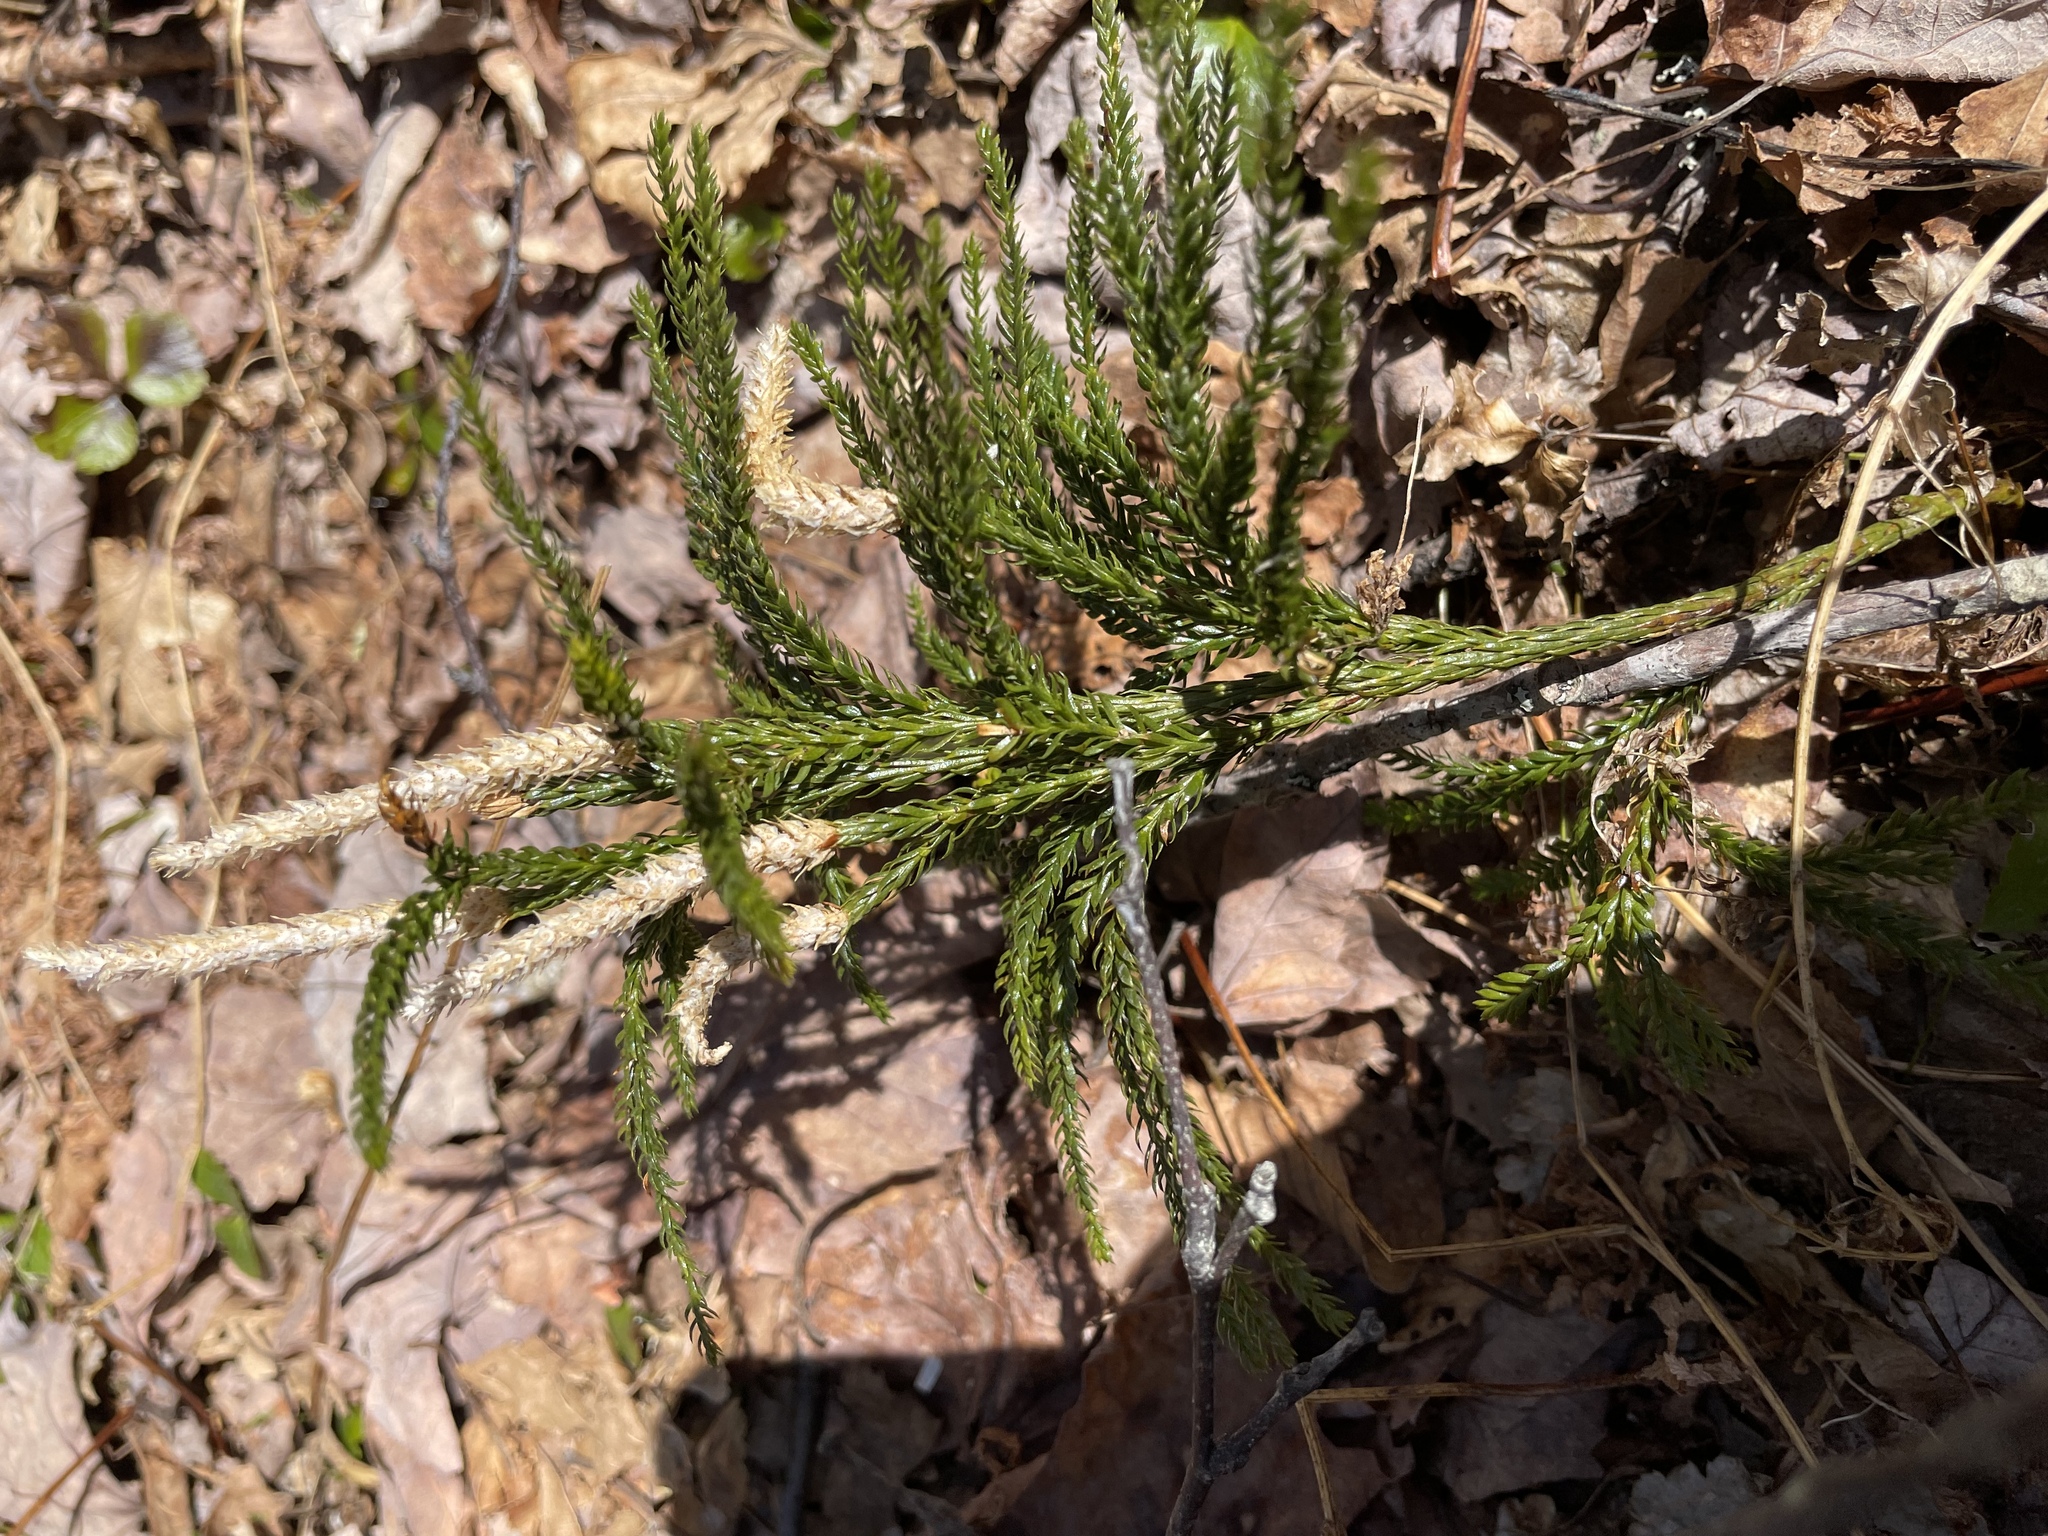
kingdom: Plantae
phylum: Tracheophyta
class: Lycopodiopsida
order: Lycopodiales
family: Lycopodiaceae
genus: Dendrolycopodium
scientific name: Dendrolycopodium obscurum
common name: Common ground-pine
